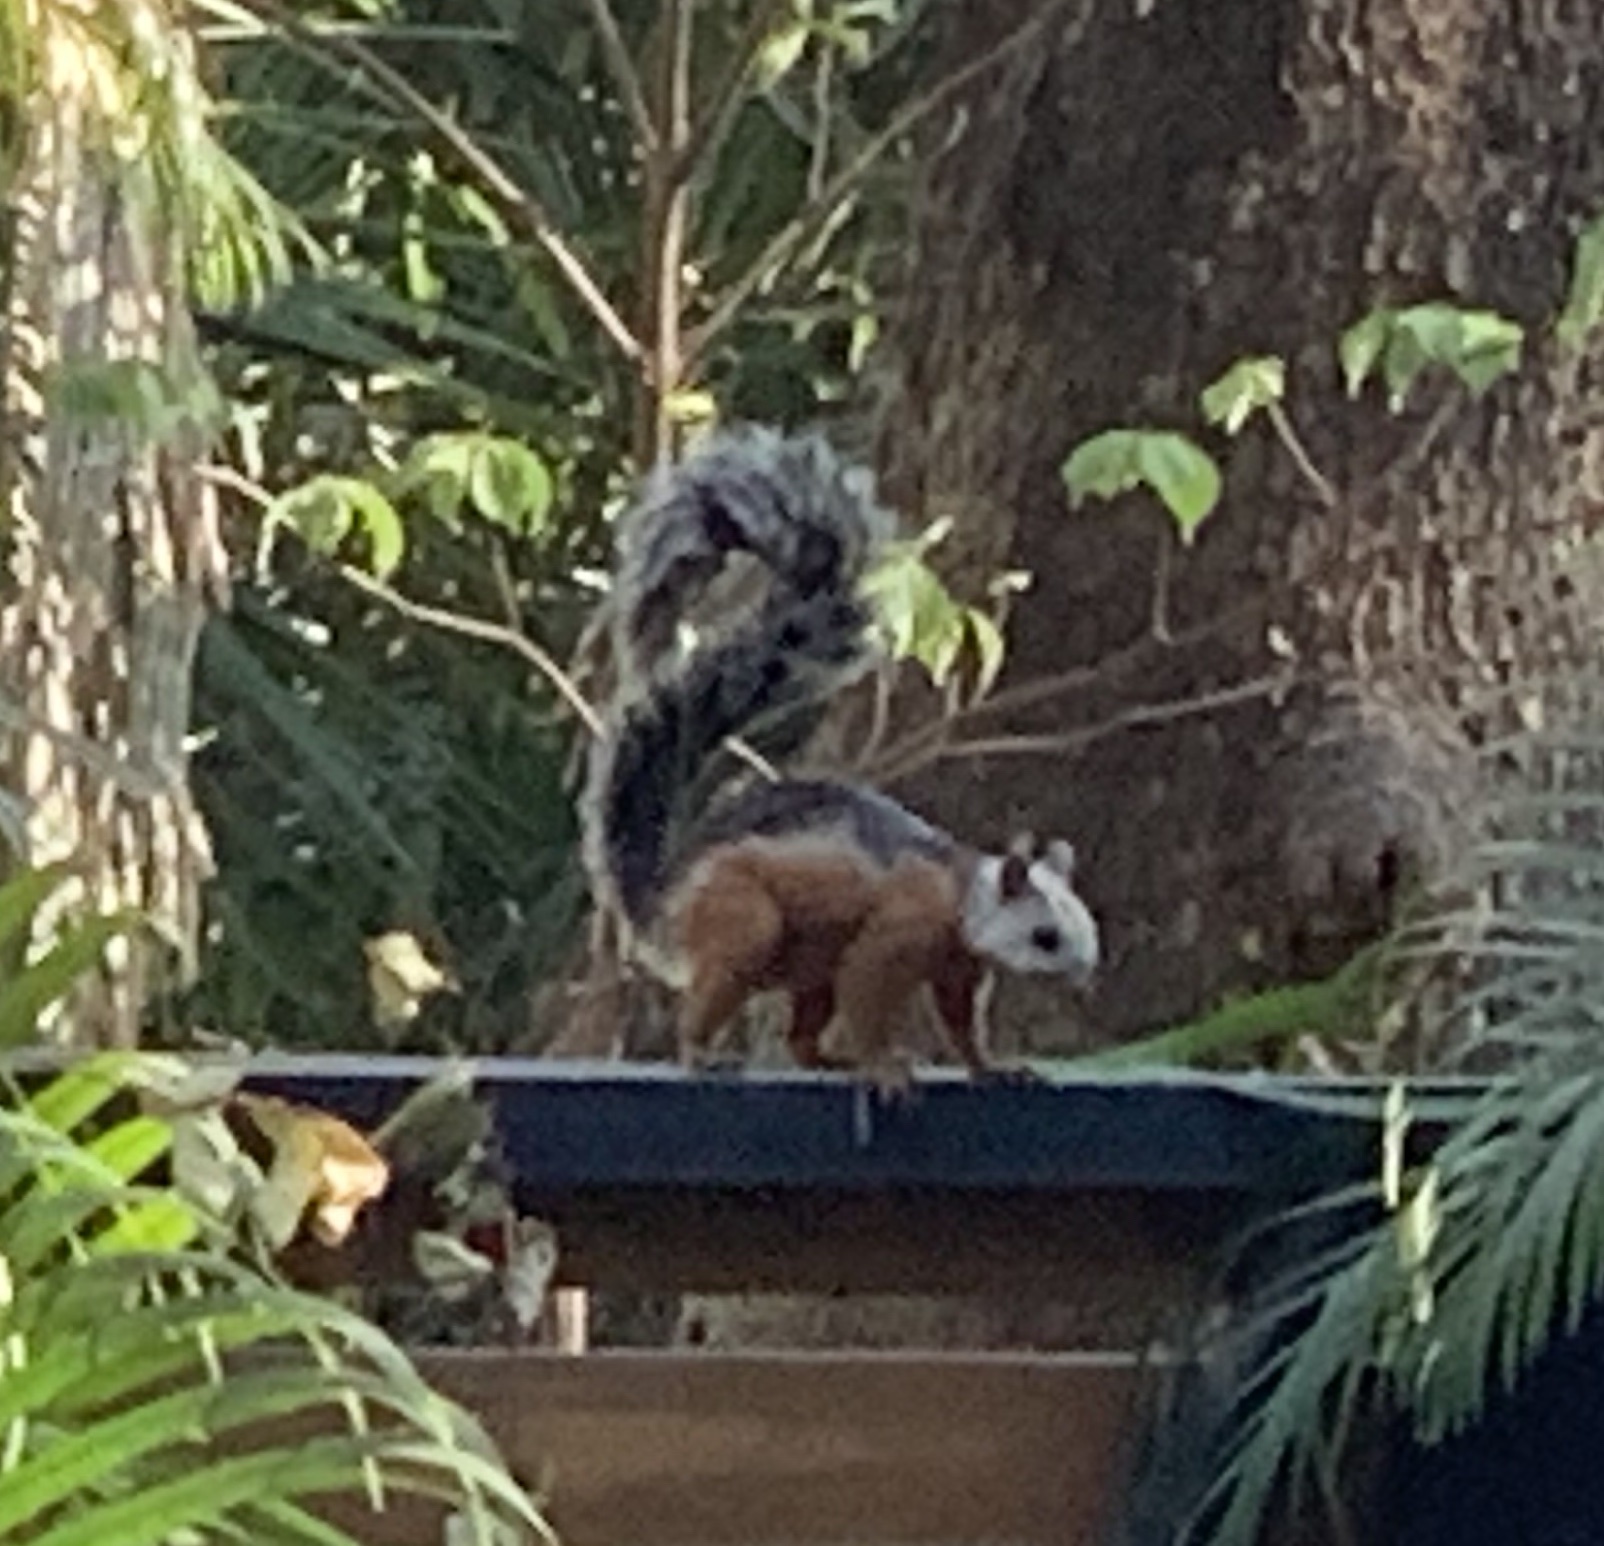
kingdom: Animalia
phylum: Chordata
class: Mammalia
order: Rodentia
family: Sciuridae
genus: Sciurus
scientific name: Sciurus variegatoides
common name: Variegated squirrel
